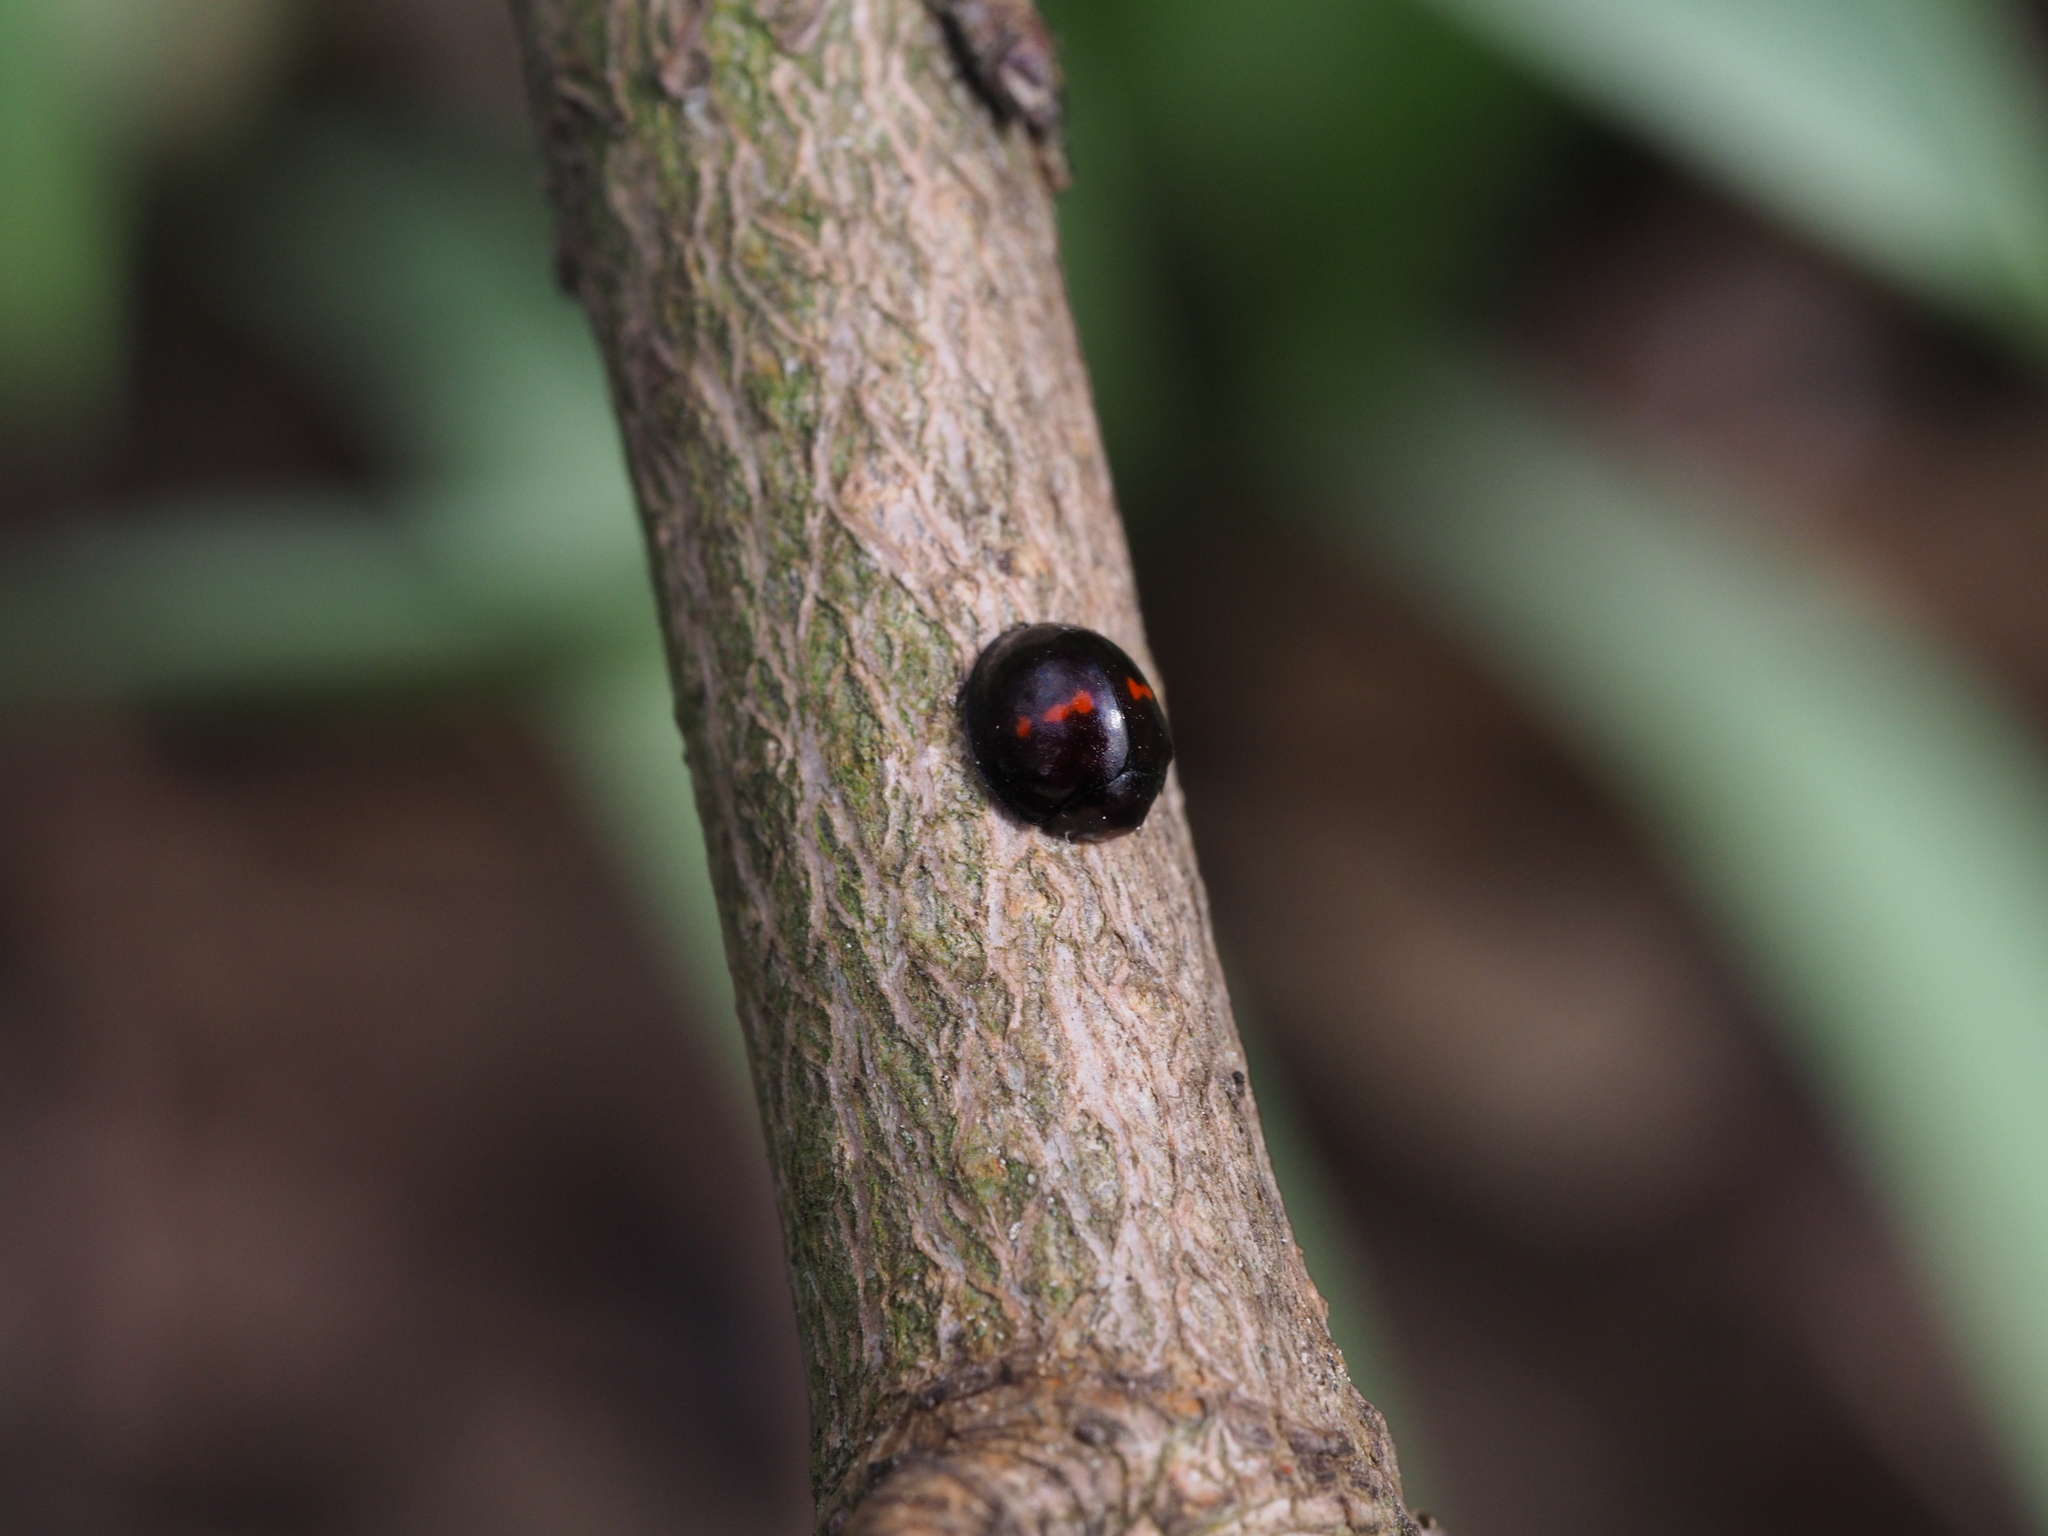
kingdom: Animalia
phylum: Arthropoda
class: Insecta
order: Coleoptera
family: Coccinellidae
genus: Chilocorus
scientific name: Chilocorus bipustulatus
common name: Heather ladybird
